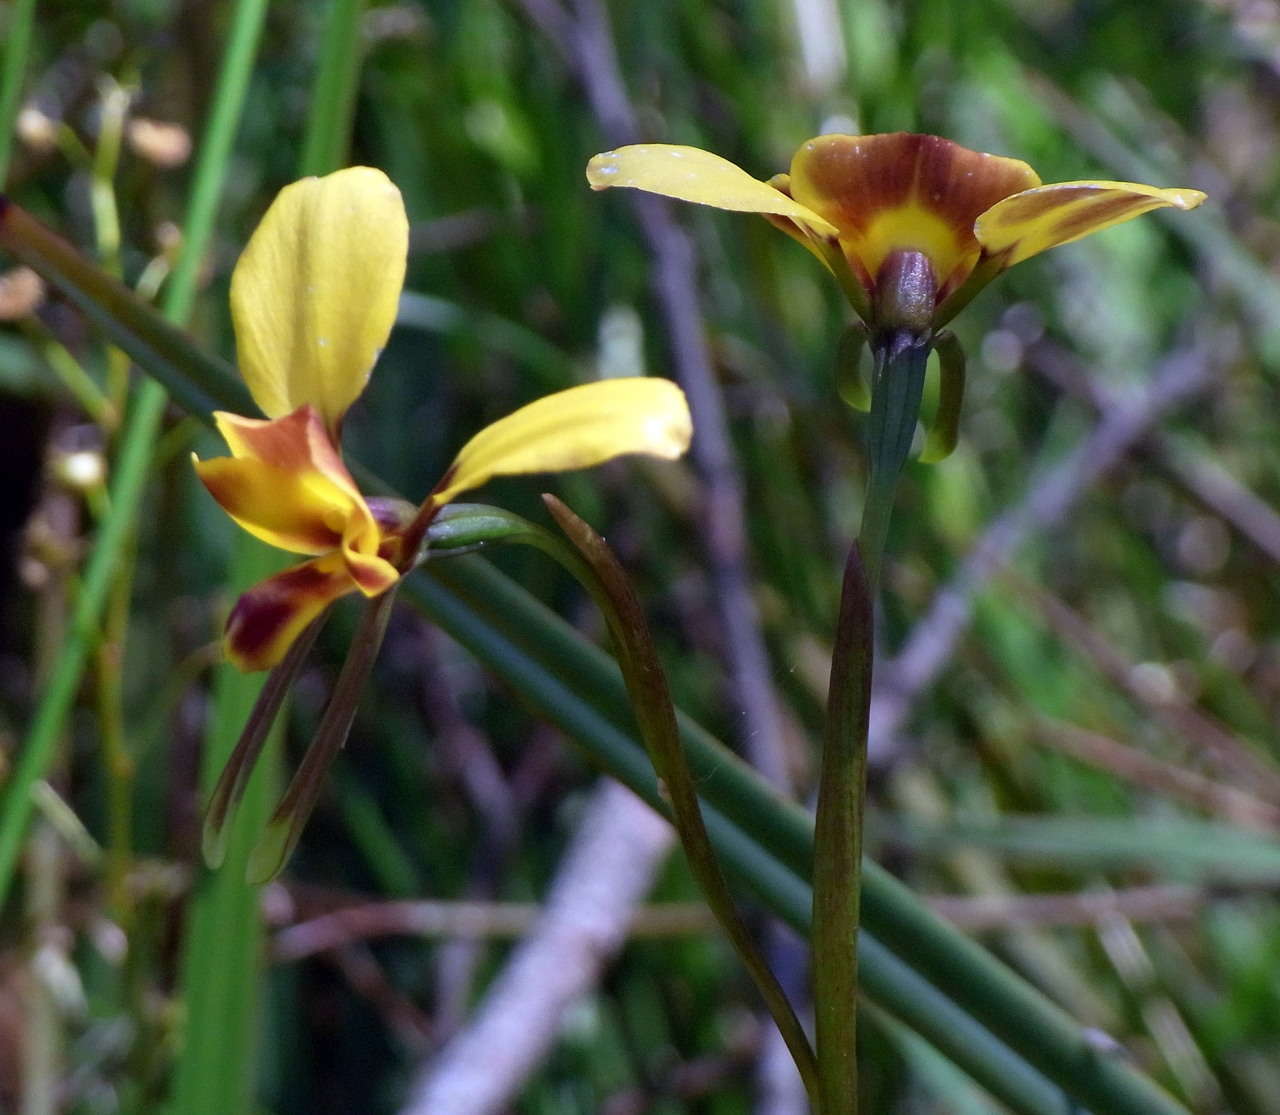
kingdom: Plantae
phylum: Tracheophyta
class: Liliopsida
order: Asparagales
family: Orchidaceae
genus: Diuris
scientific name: Diuris orientis
